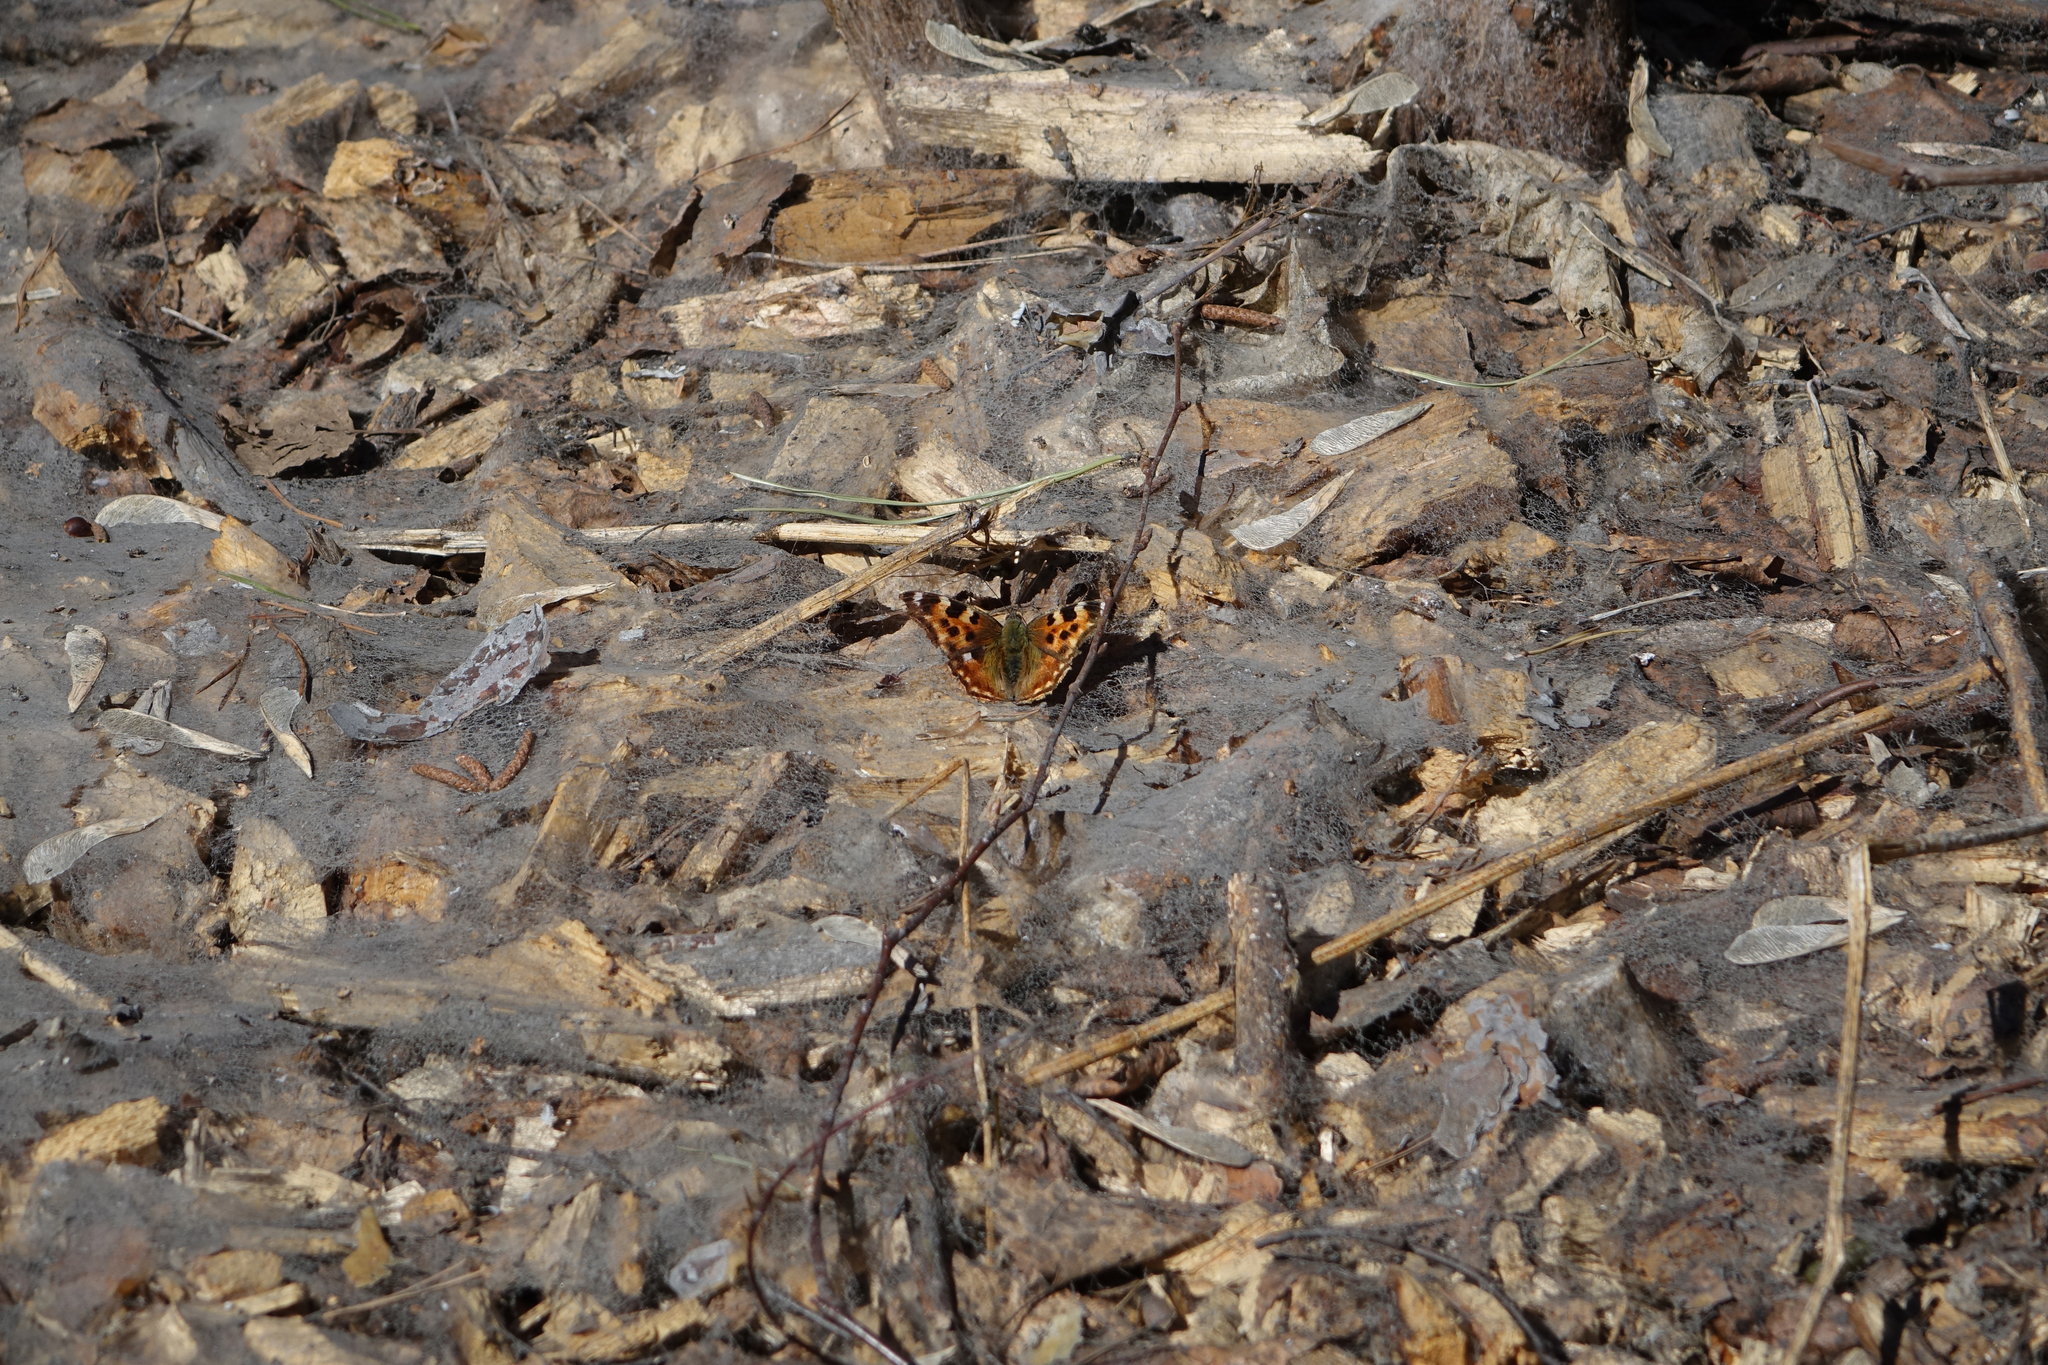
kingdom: Animalia
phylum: Arthropoda
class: Insecta
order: Lepidoptera
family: Nymphalidae
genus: Polygonia
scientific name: Polygonia vaualbum
